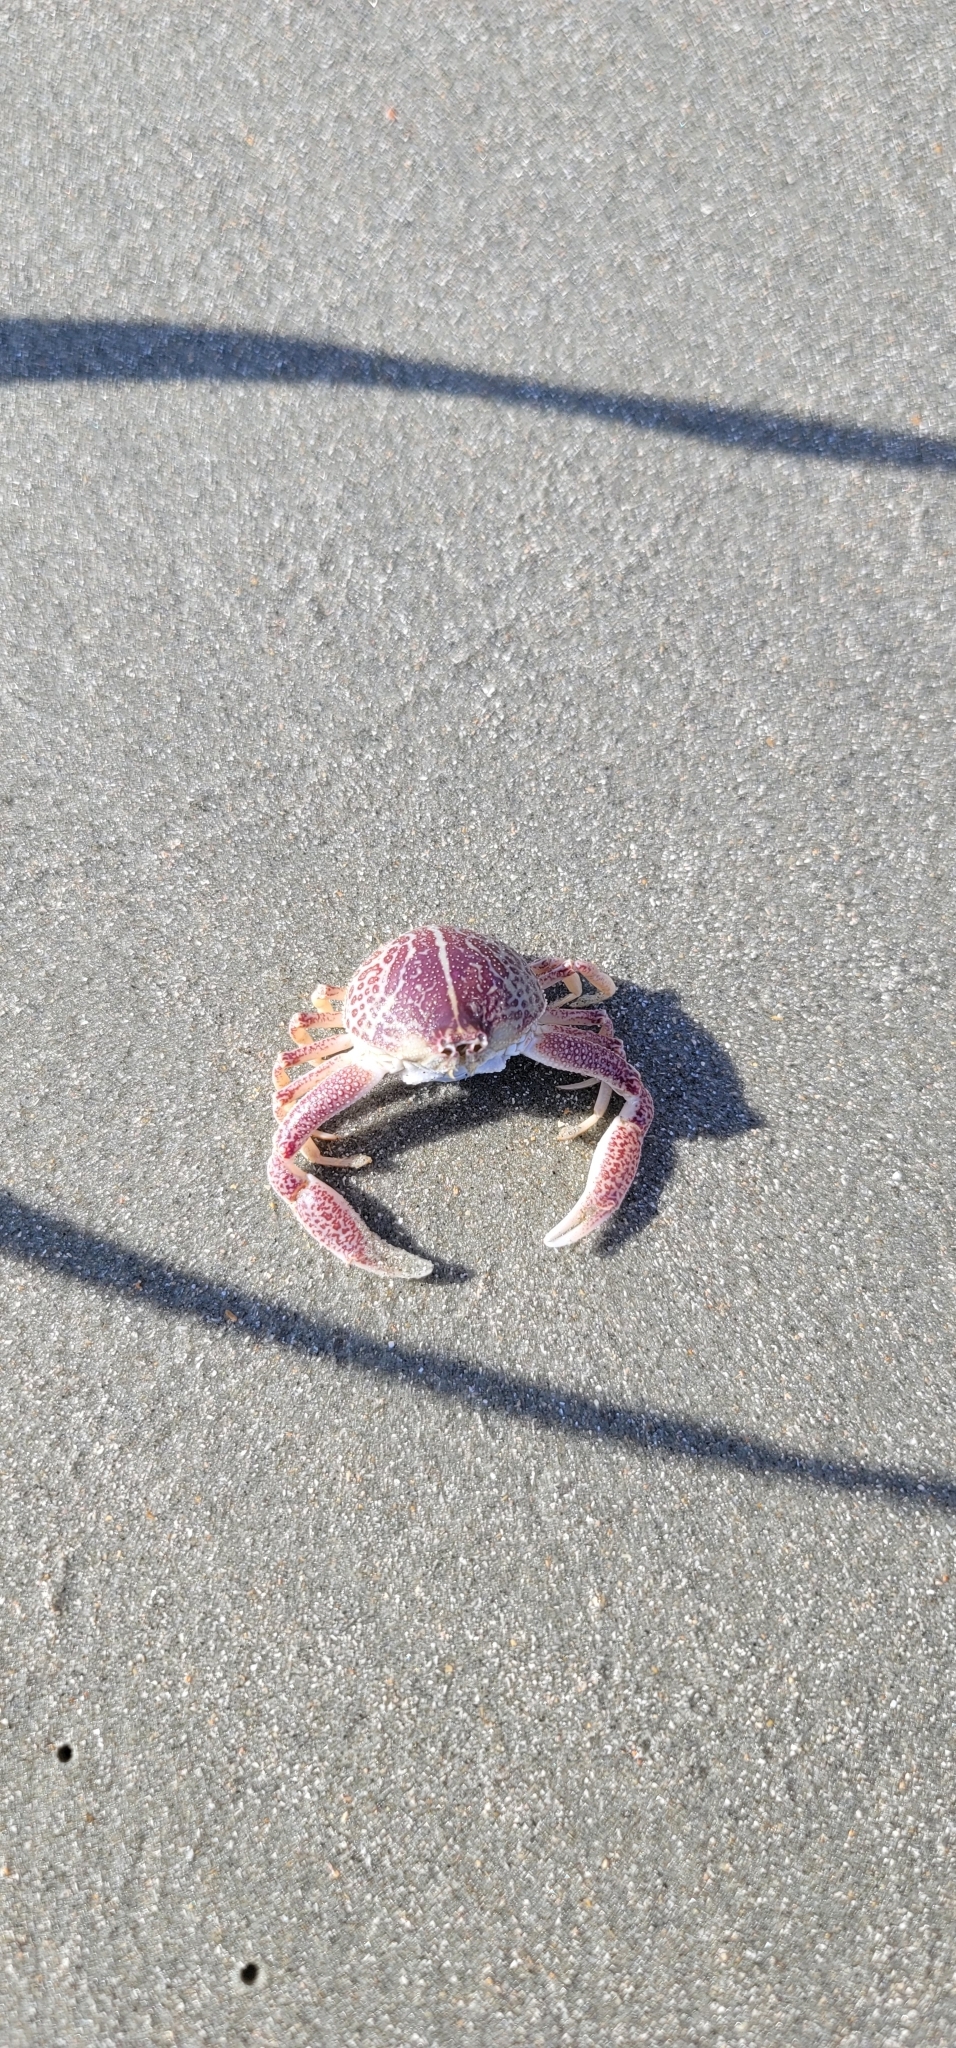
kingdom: Animalia
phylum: Arthropoda
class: Malacostraca
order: Decapoda
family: Leucosiidae
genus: Persephona
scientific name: Persephona aquilonaris
